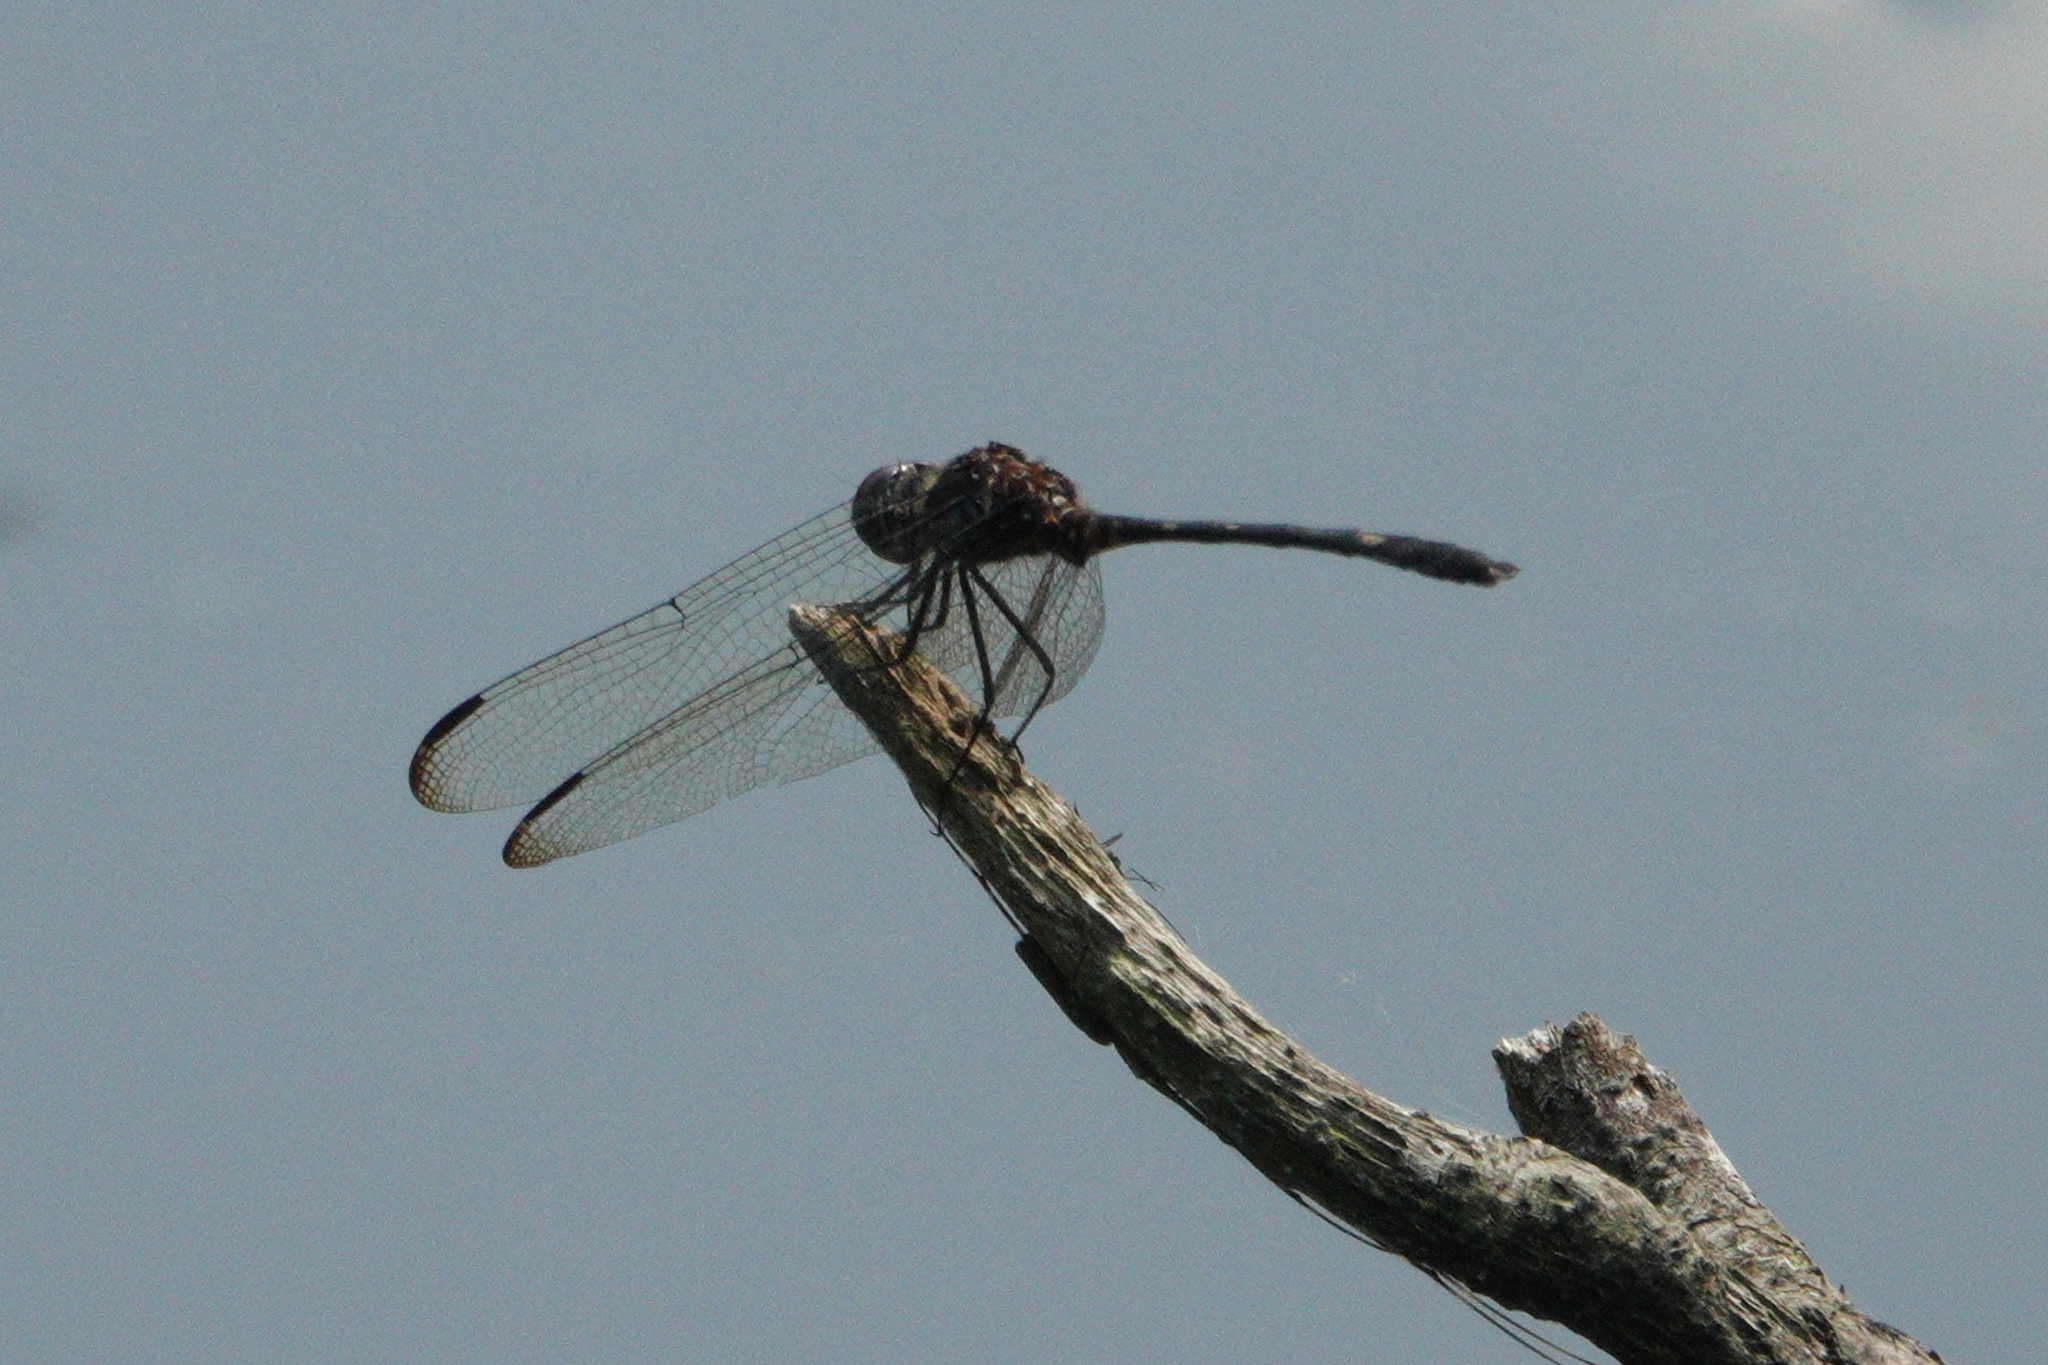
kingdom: Animalia
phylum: Arthropoda
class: Insecta
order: Odonata
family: Libellulidae
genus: Dythemis
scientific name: Dythemis velox
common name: Swift setwing
